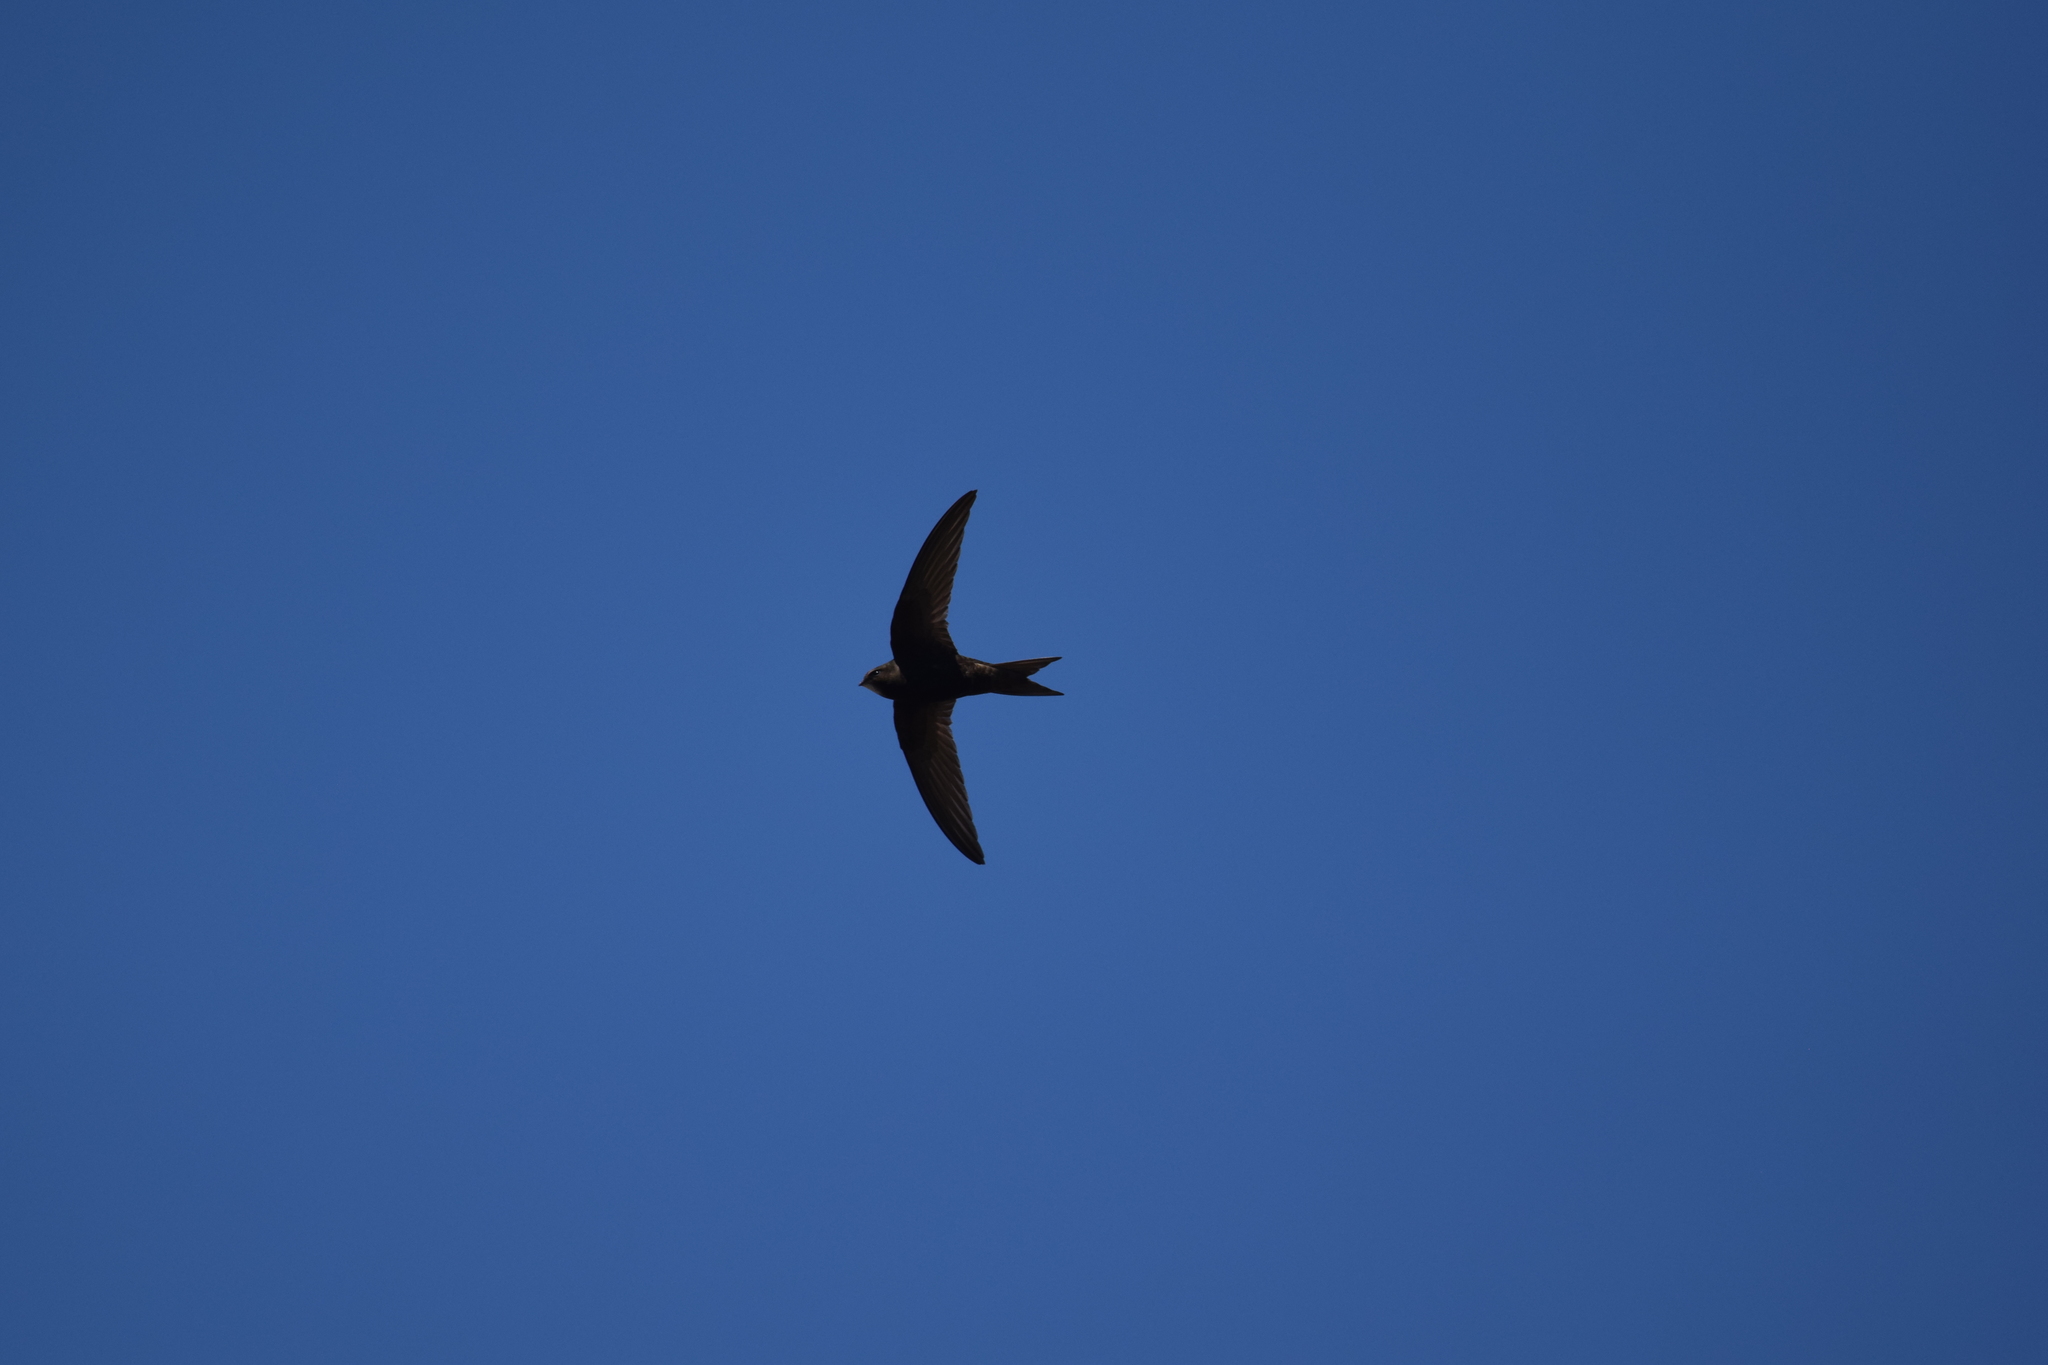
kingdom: Animalia
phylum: Chordata
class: Aves
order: Apodiformes
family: Apodidae
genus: Apus
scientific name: Apus apus
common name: Common swift
